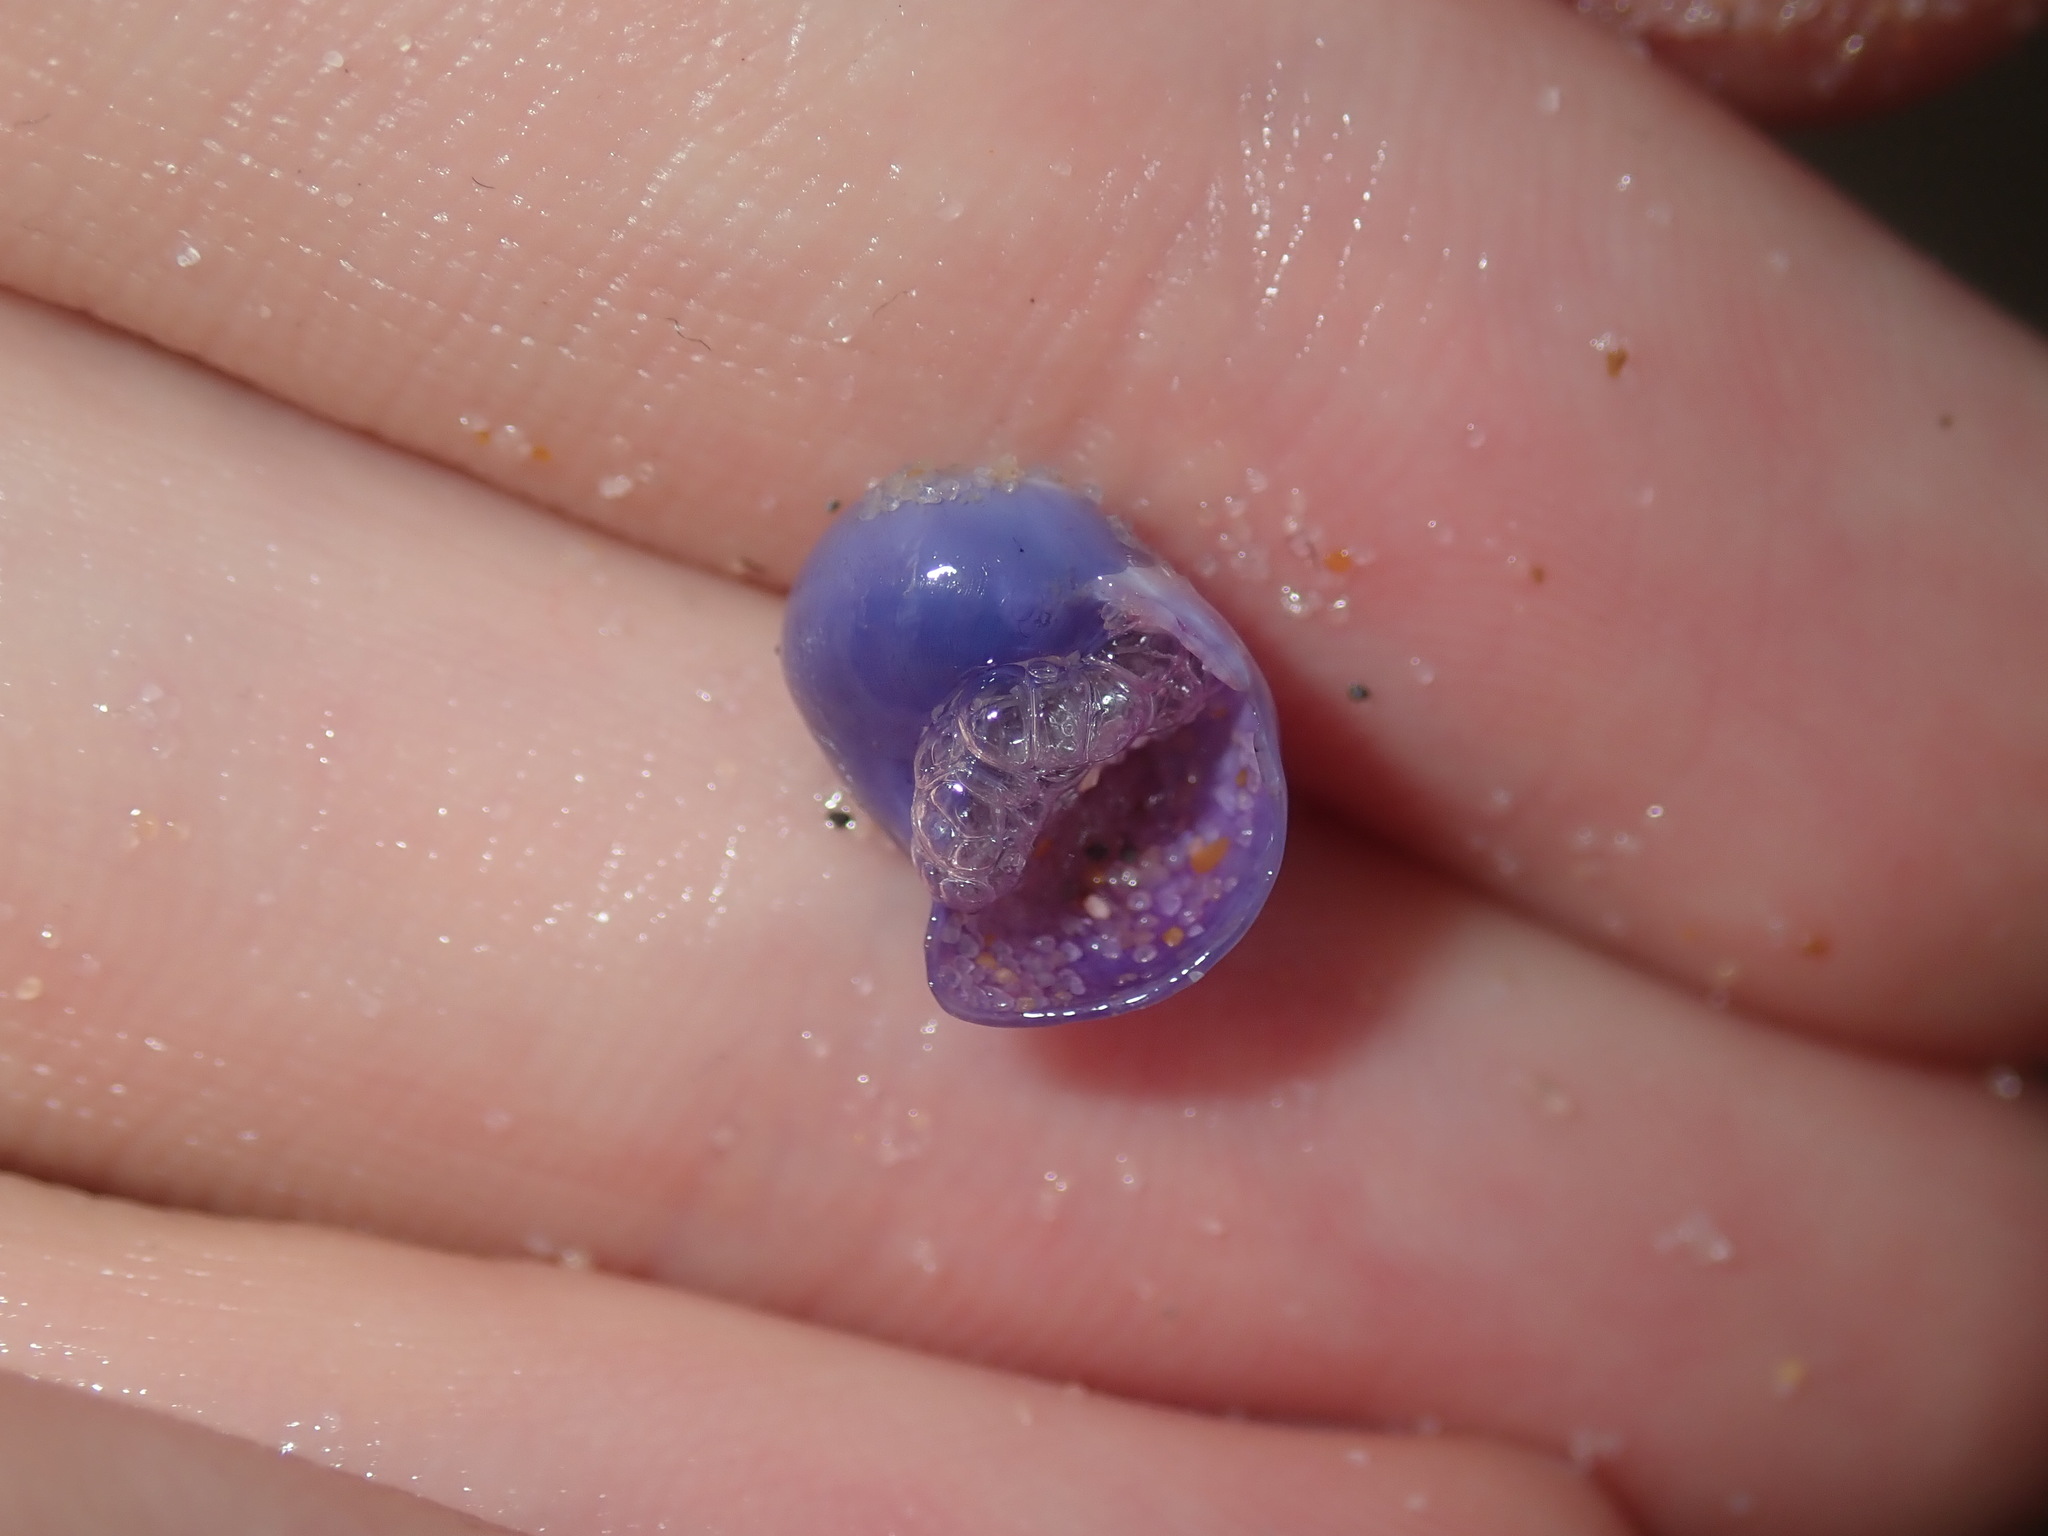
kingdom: Animalia
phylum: Mollusca
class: Gastropoda
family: Epitoniidae
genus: Janthina
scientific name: Janthina globosa
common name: Elongate janthina
